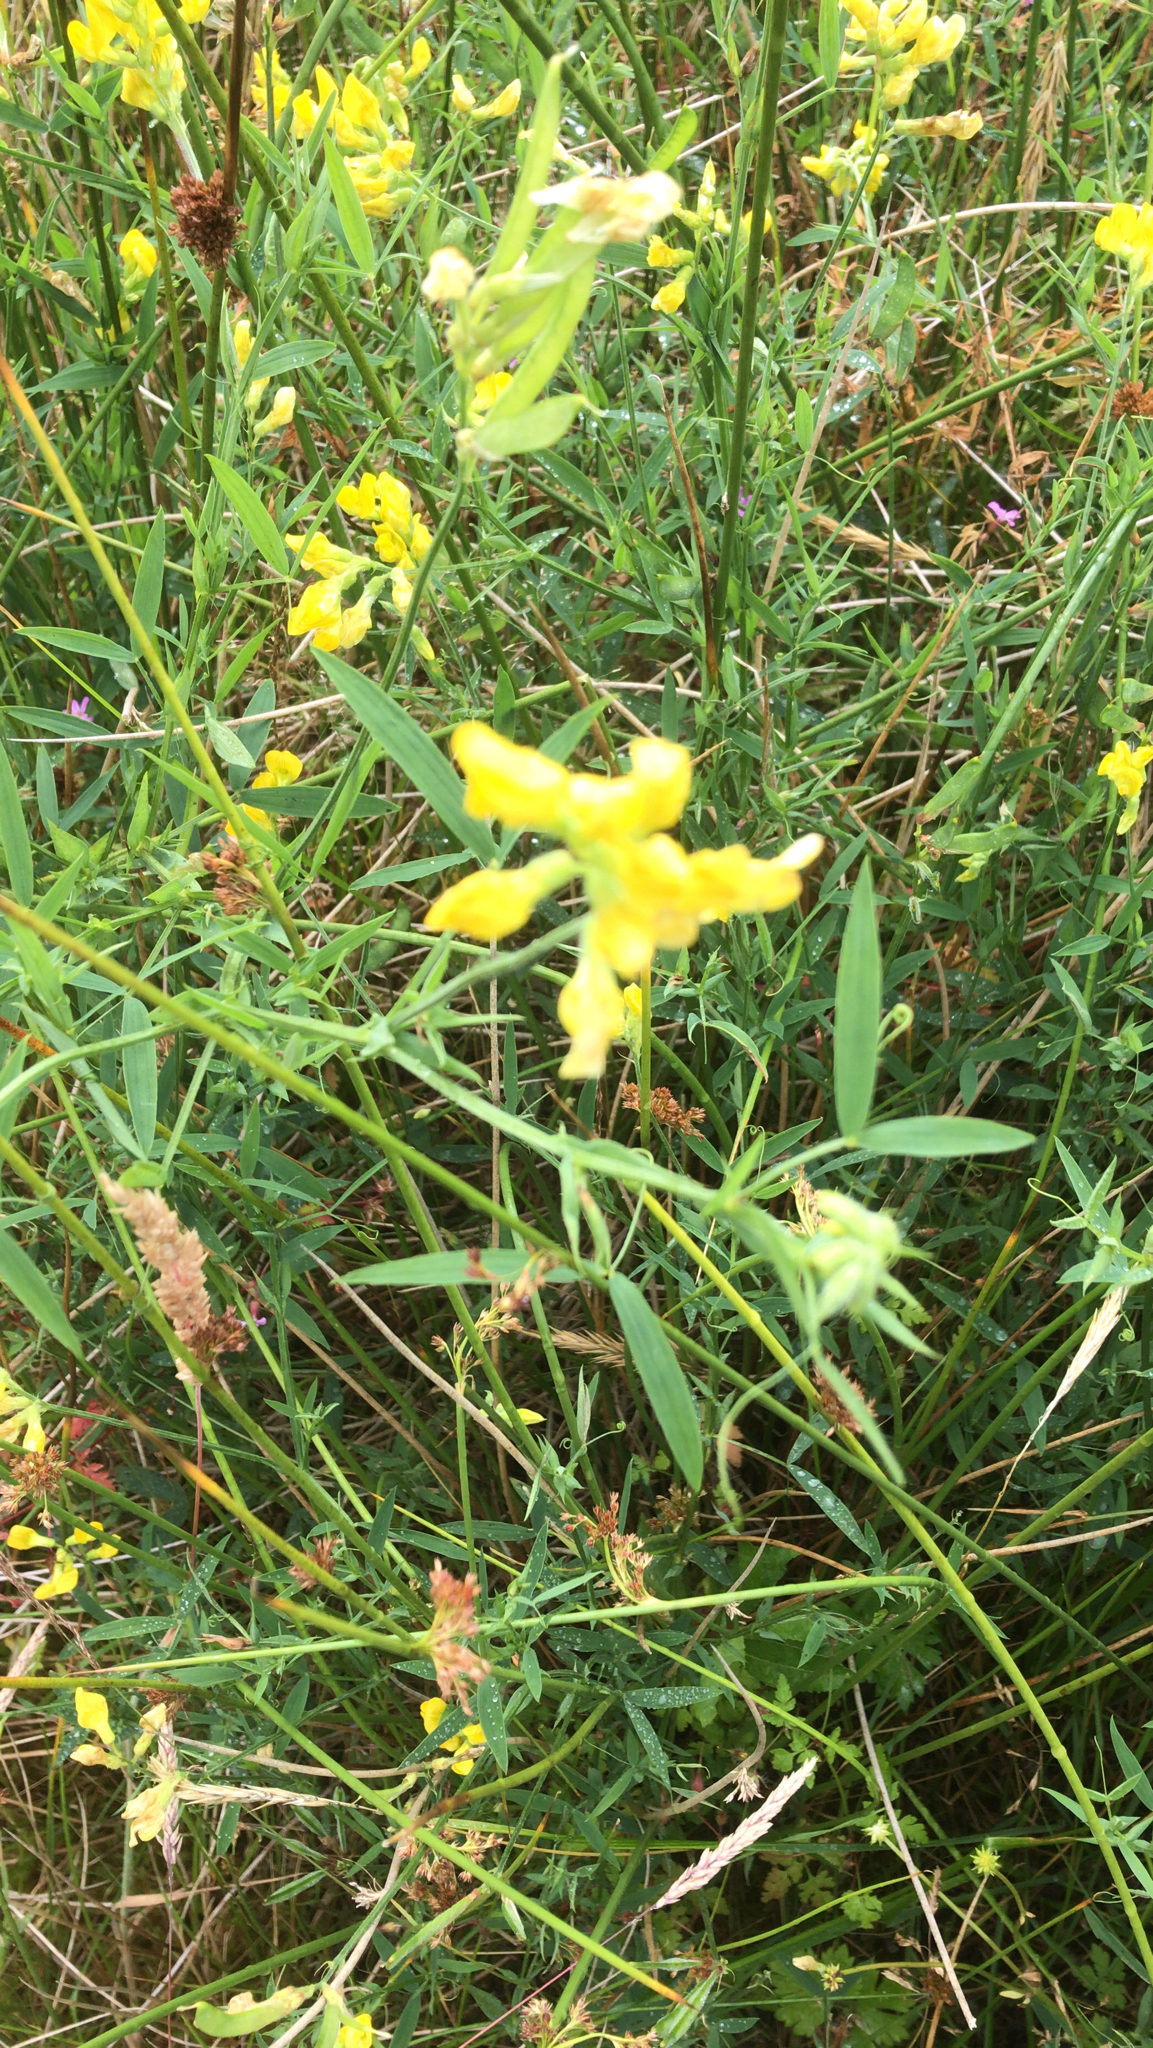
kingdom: Plantae
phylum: Tracheophyta
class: Magnoliopsida
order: Fabales
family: Fabaceae
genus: Lathyrus
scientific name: Lathyrus pratensis
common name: Meadow vetchling
